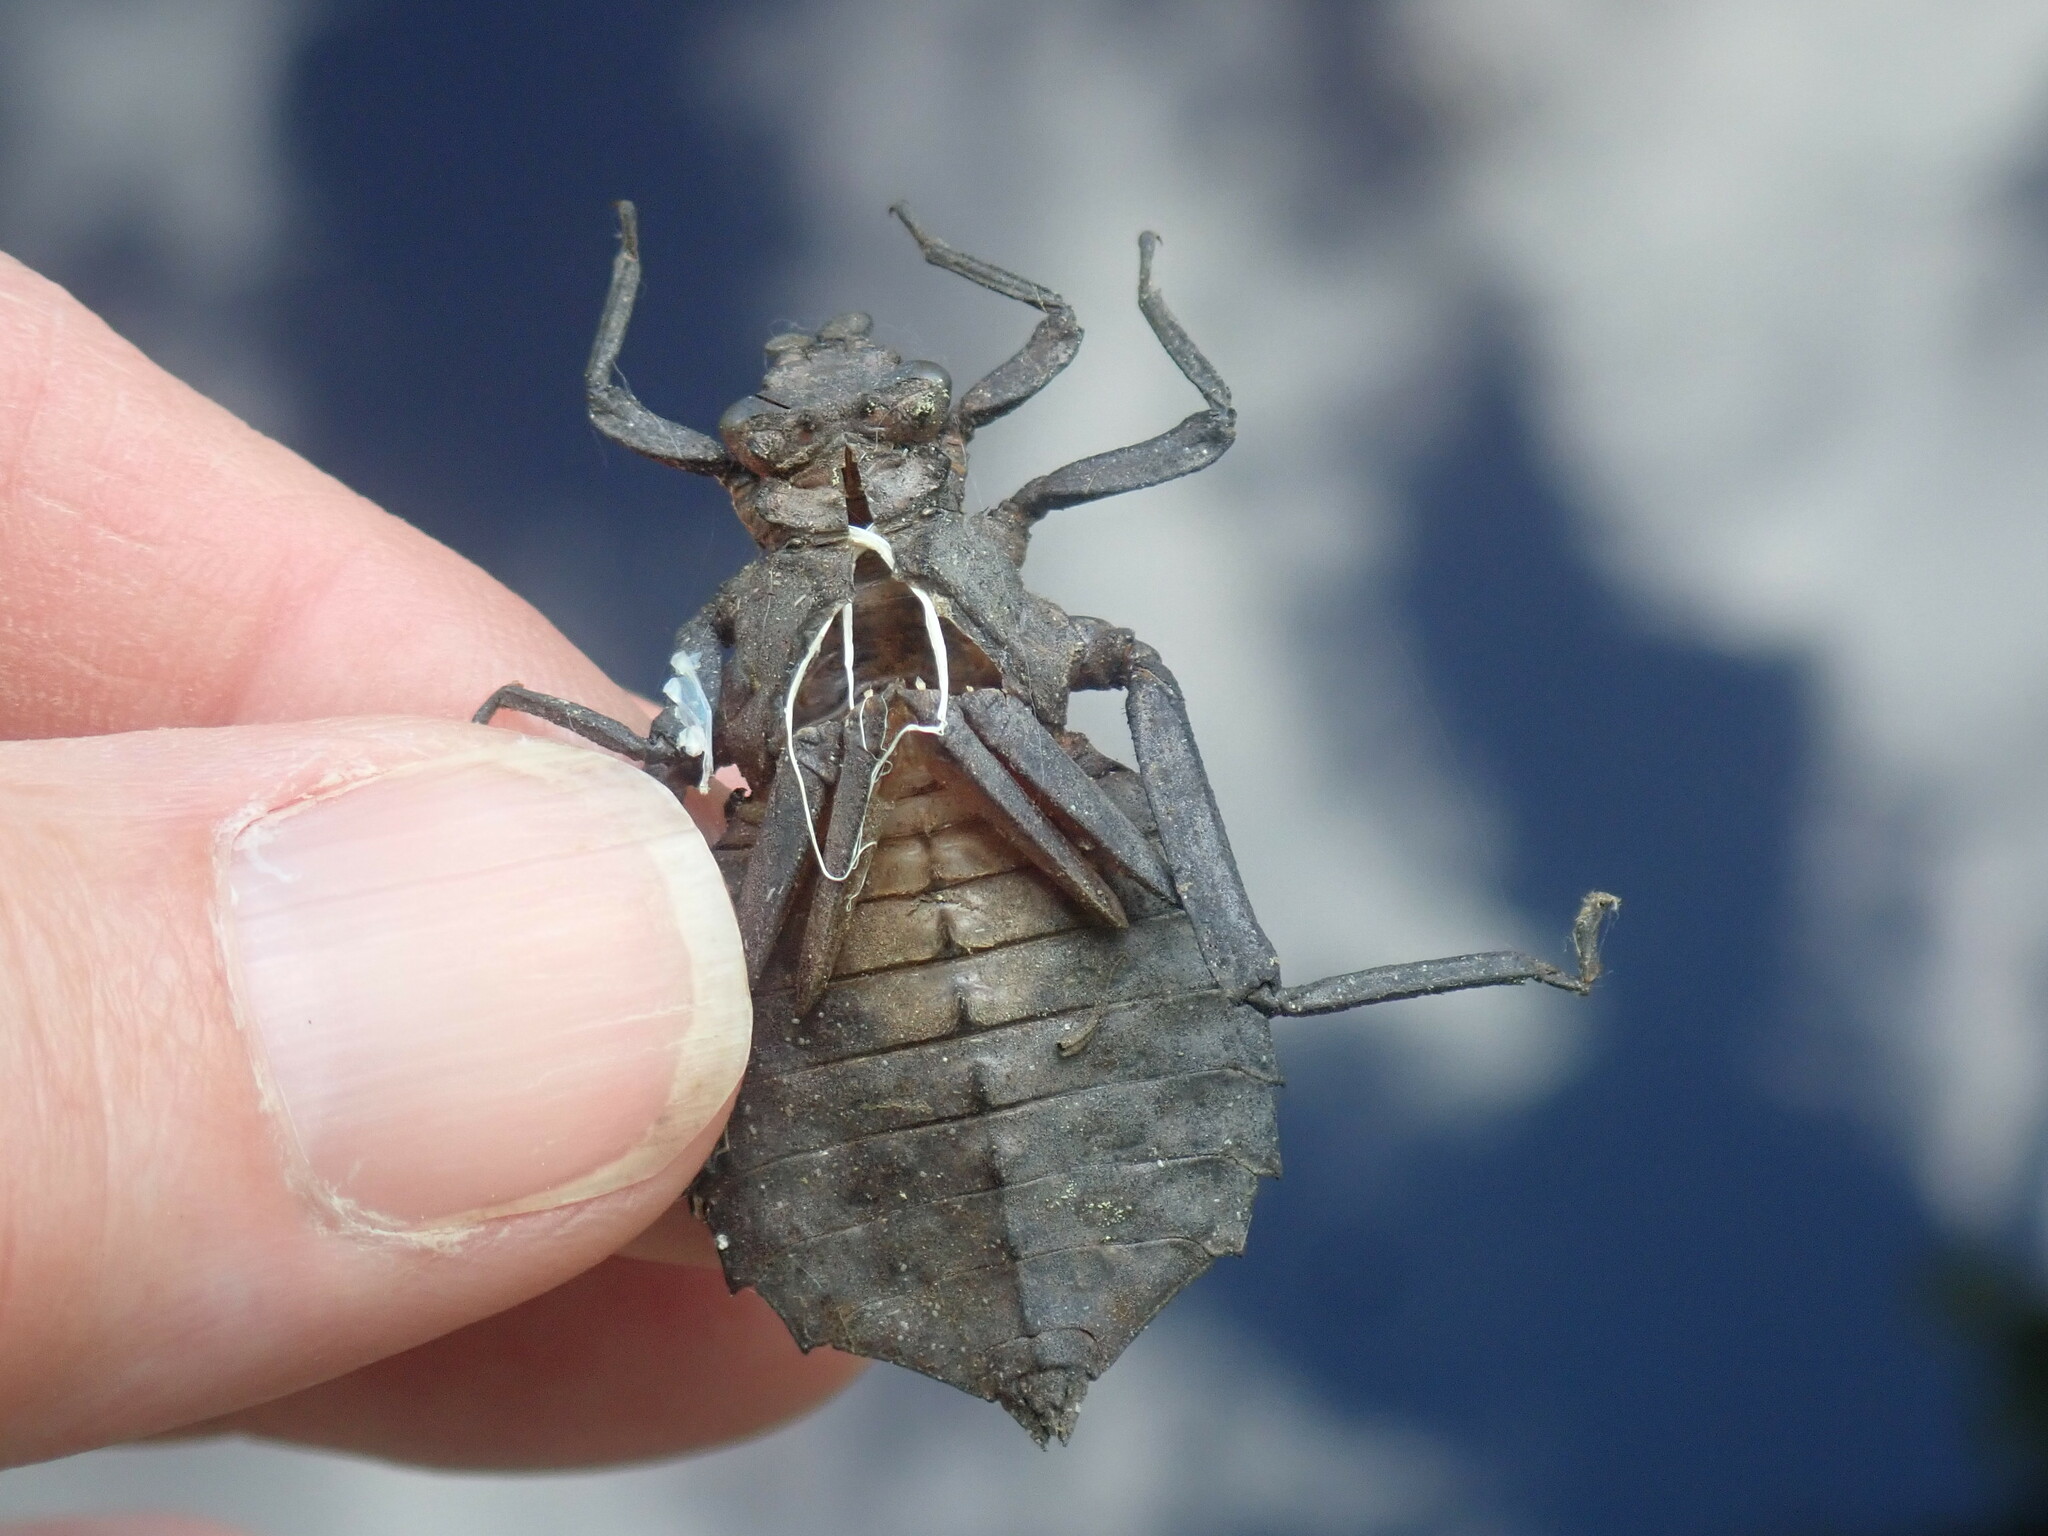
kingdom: Animalia
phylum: Arthropoda
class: Insecta
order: Odonata
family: Gomphidae
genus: Hagenius
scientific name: Hagenius brevistylus
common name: Dragonhunter
